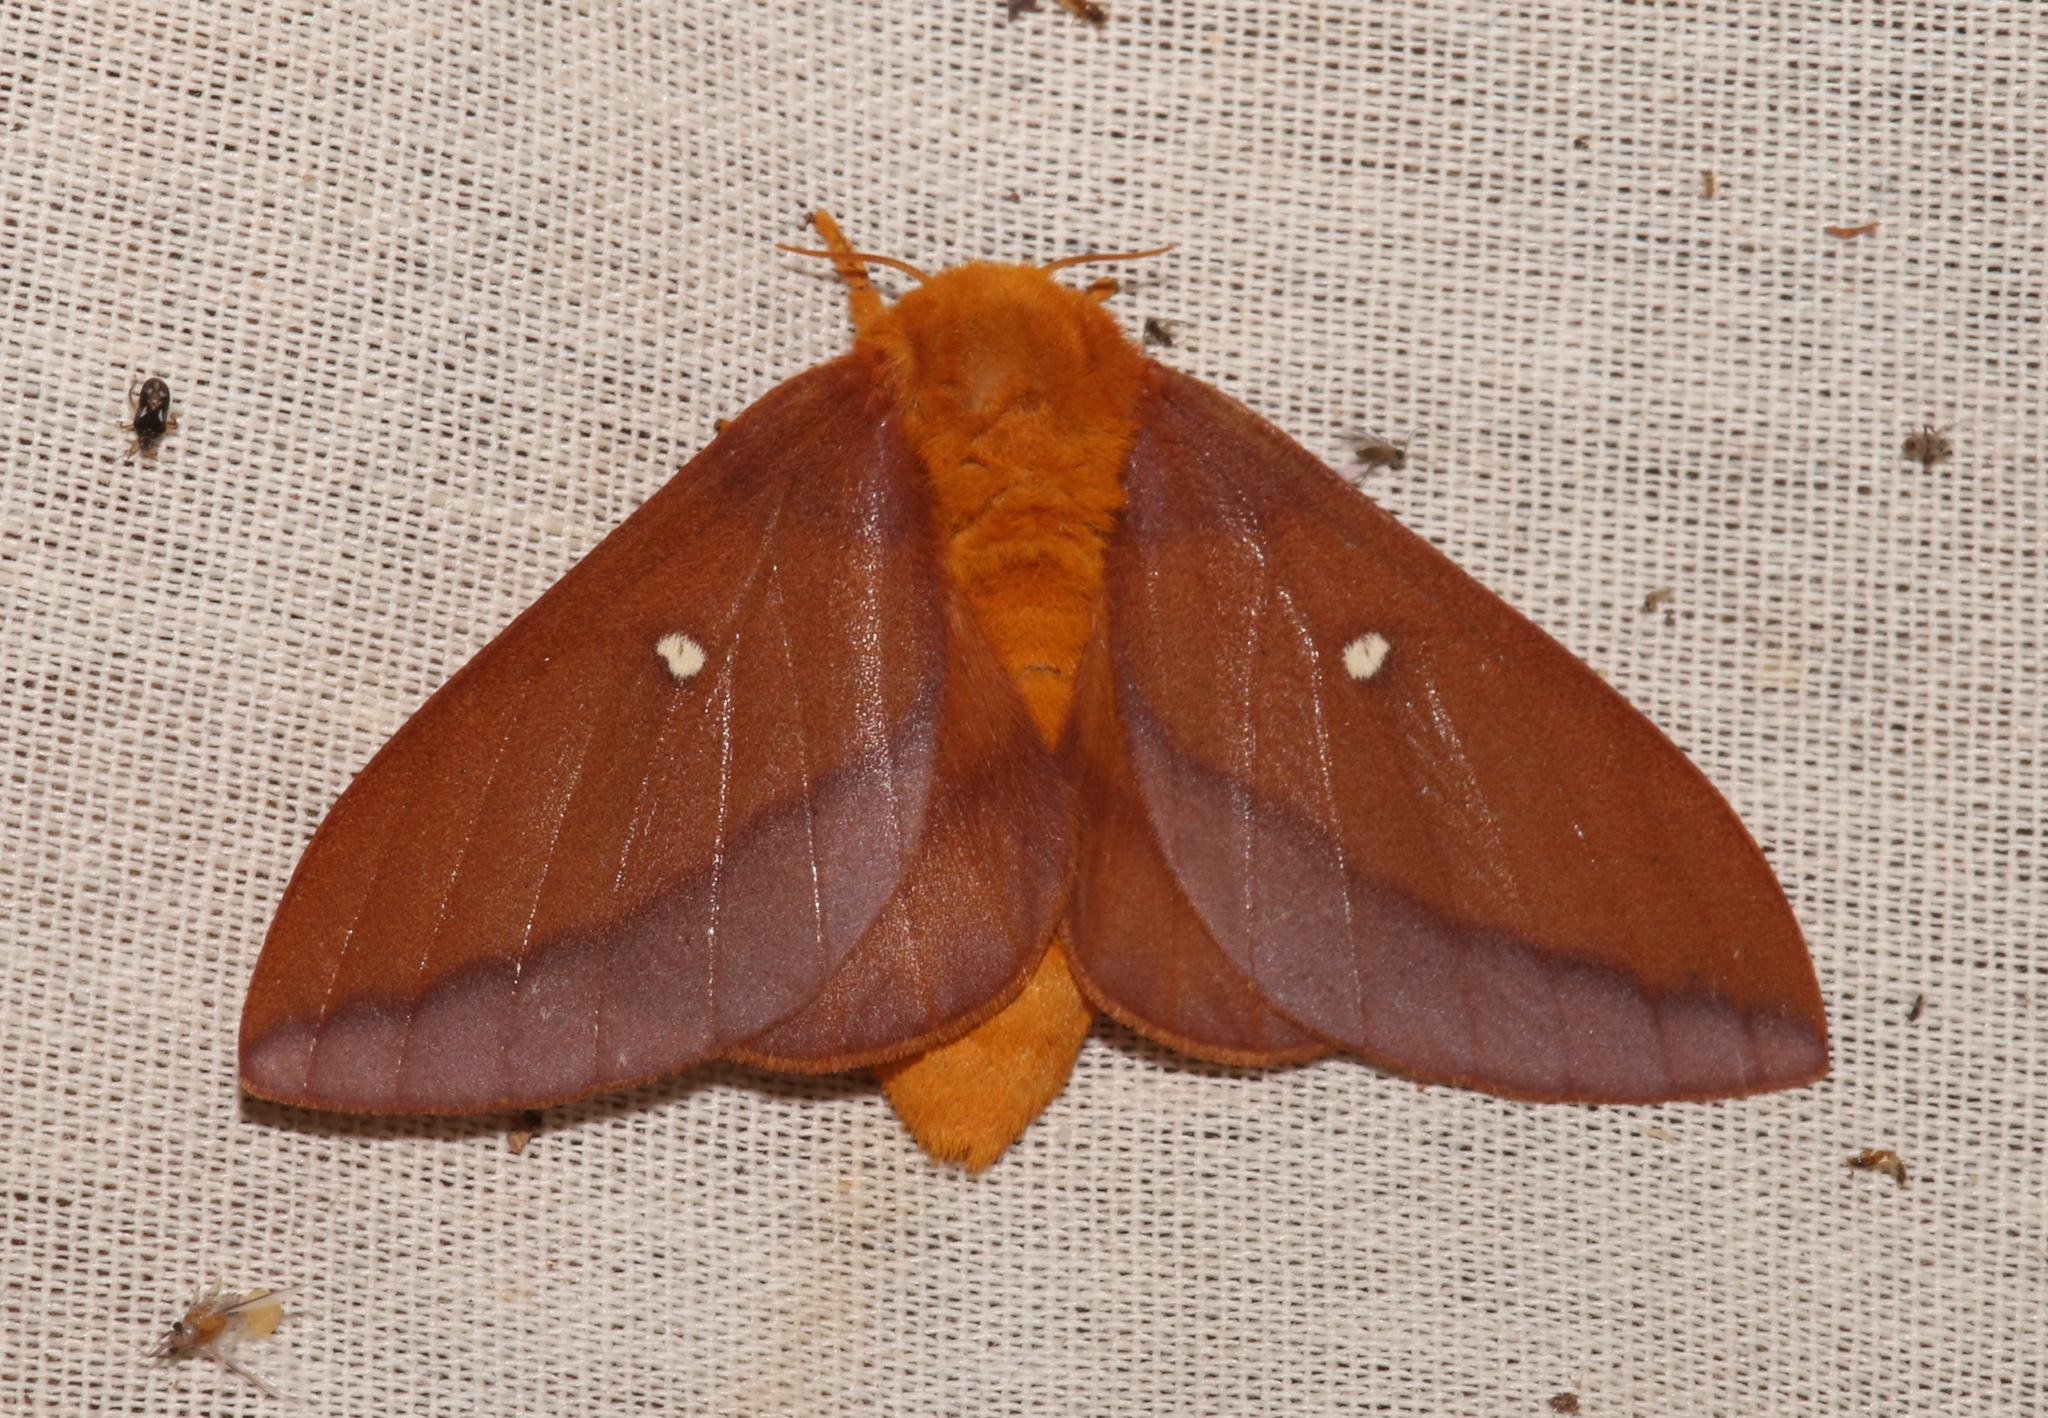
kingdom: Animalia
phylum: Arthropoda
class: Insecta
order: Lepidoptera
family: Saturniidae
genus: Anisota
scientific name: Anisota virginiensis
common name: Pink striped oakworm moth
